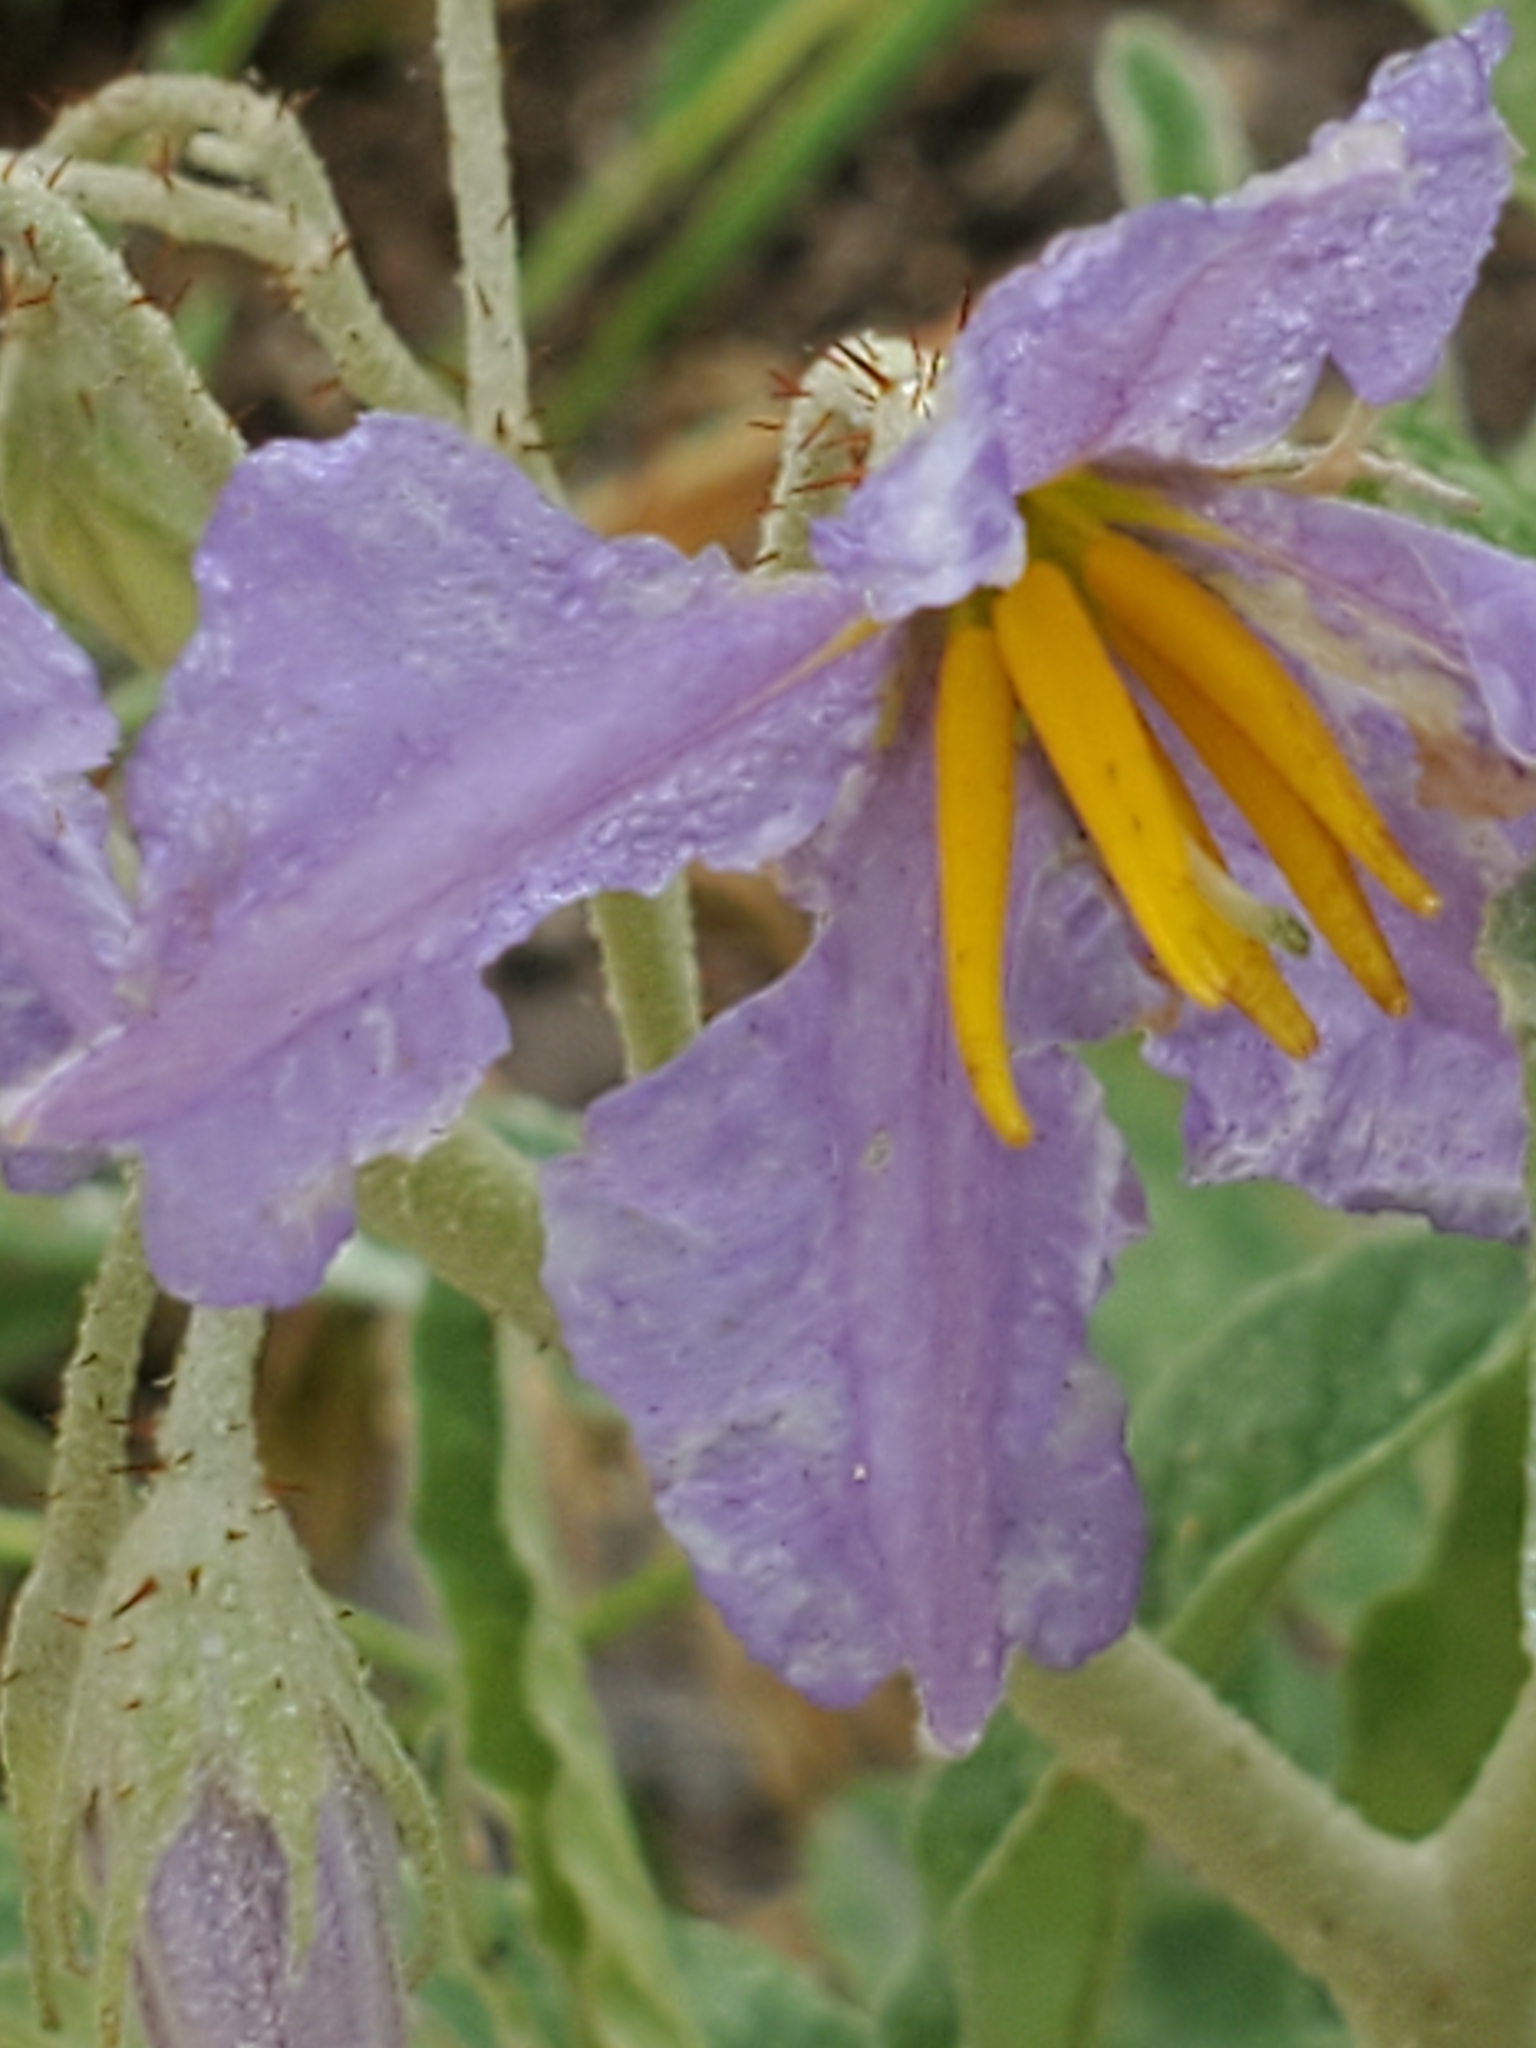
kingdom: Plantae
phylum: Tracheophyta
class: Magnoliopsida
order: Solanales
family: Solanaceae
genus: Solanum
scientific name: Solanum elaeagnifolium
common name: Silverleaf nightshade
